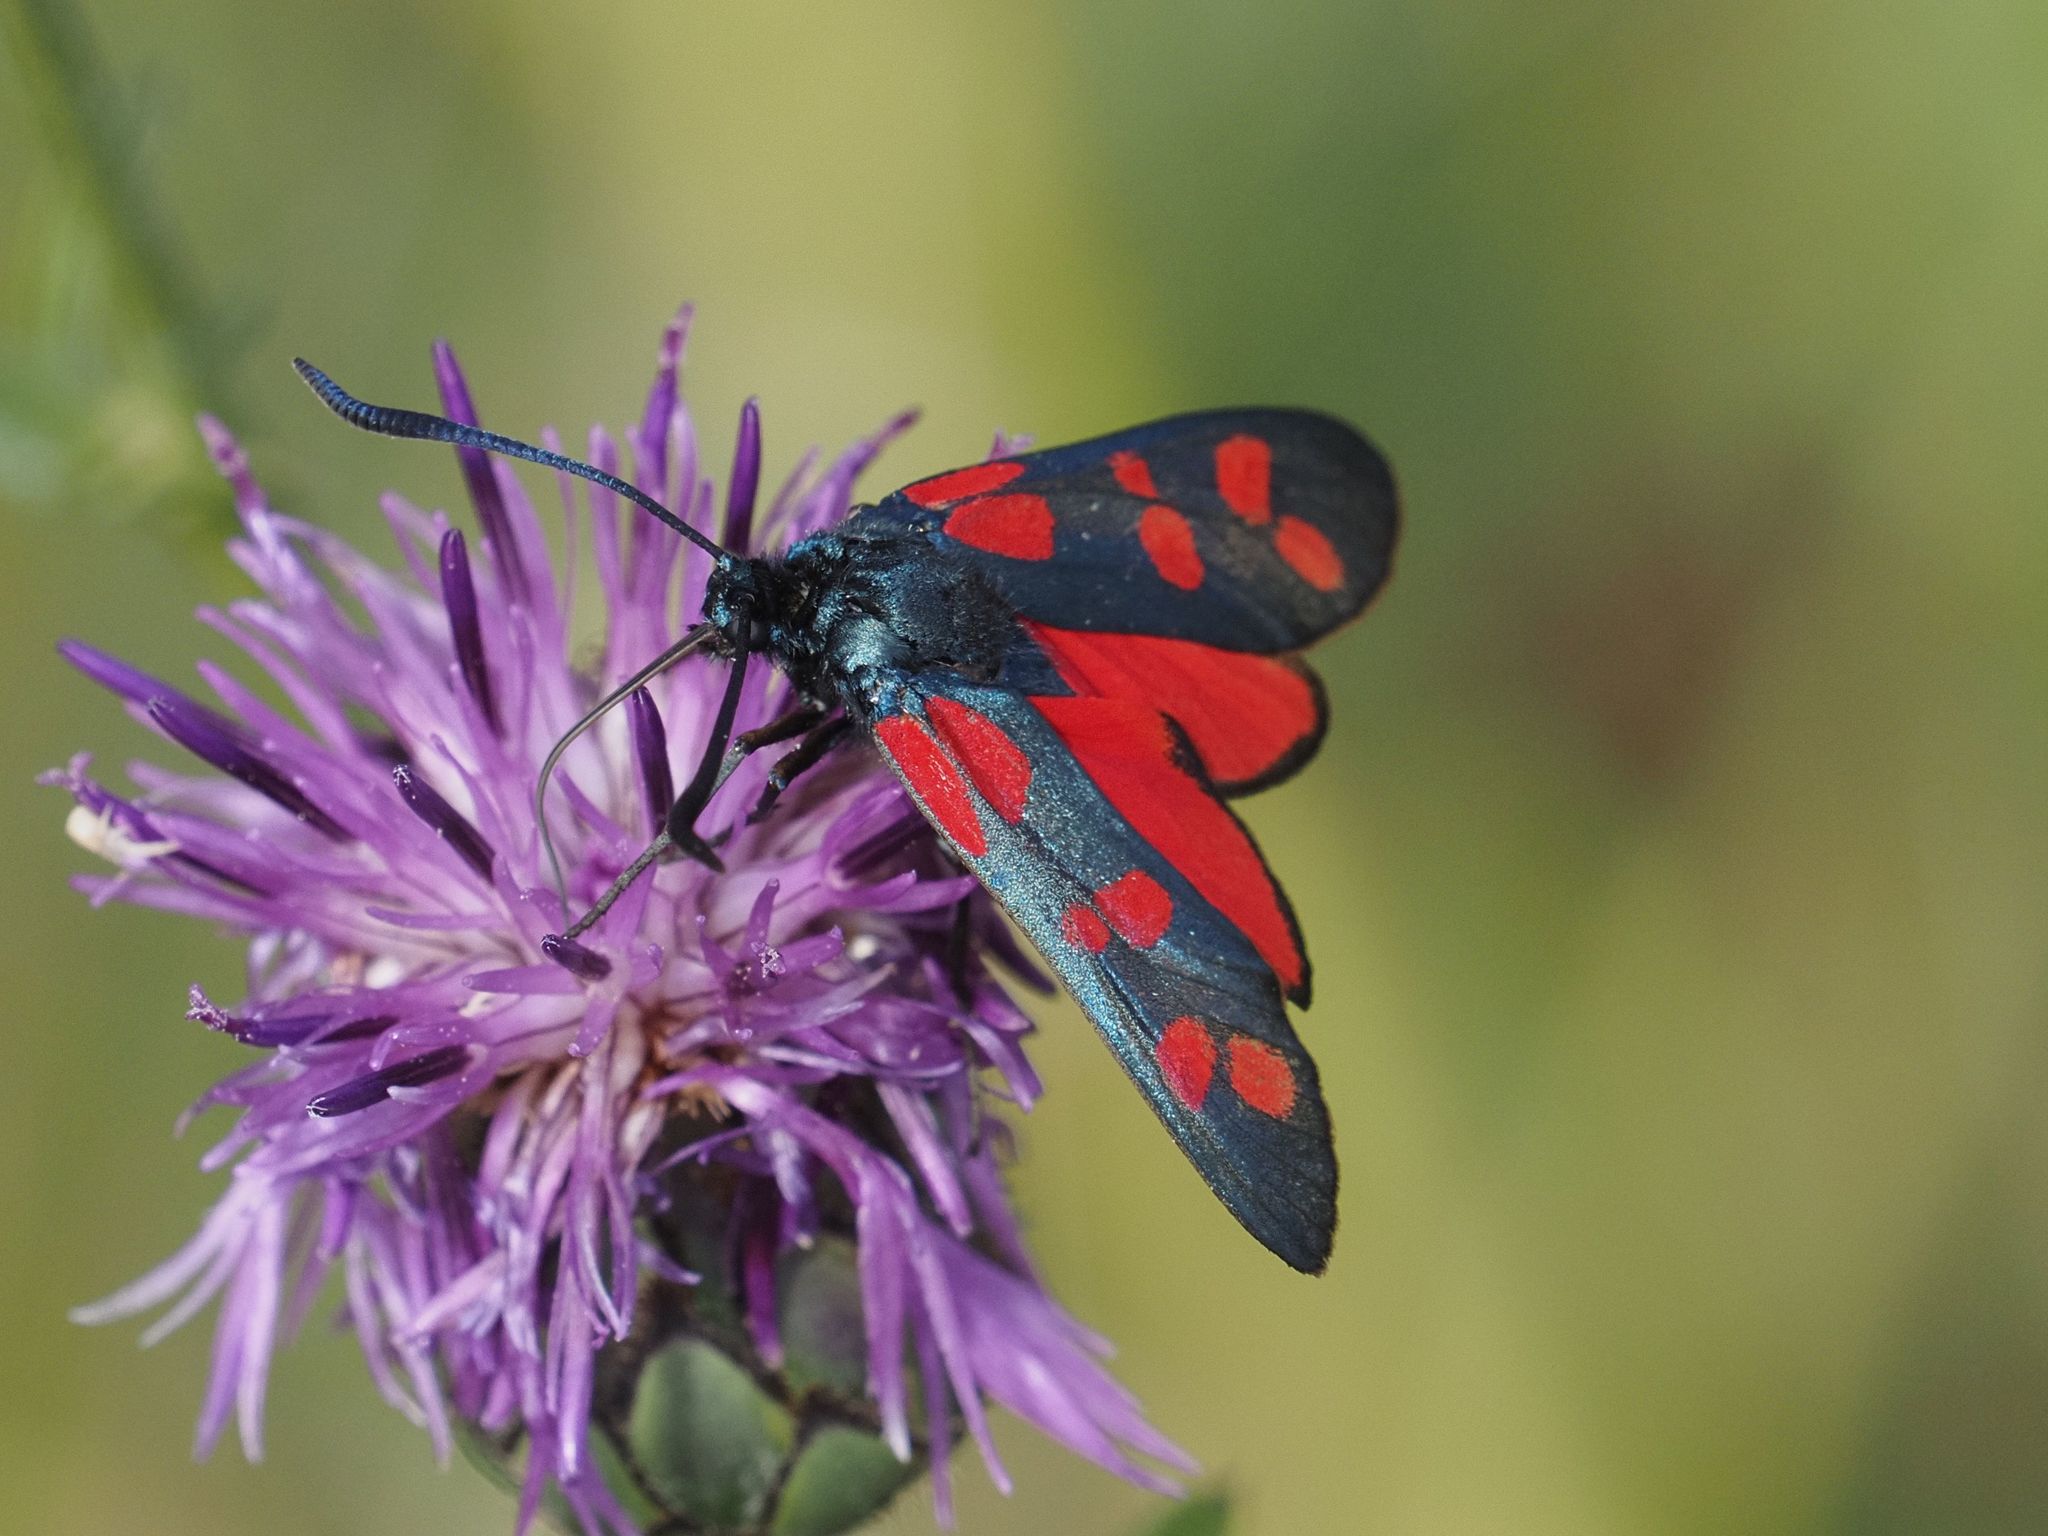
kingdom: Animalia
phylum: Arthropoda
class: Insecta
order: Lepidoptera
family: Zygaenidae
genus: Zygaena
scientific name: Zygaena filipendulae
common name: Six-spot burnet
